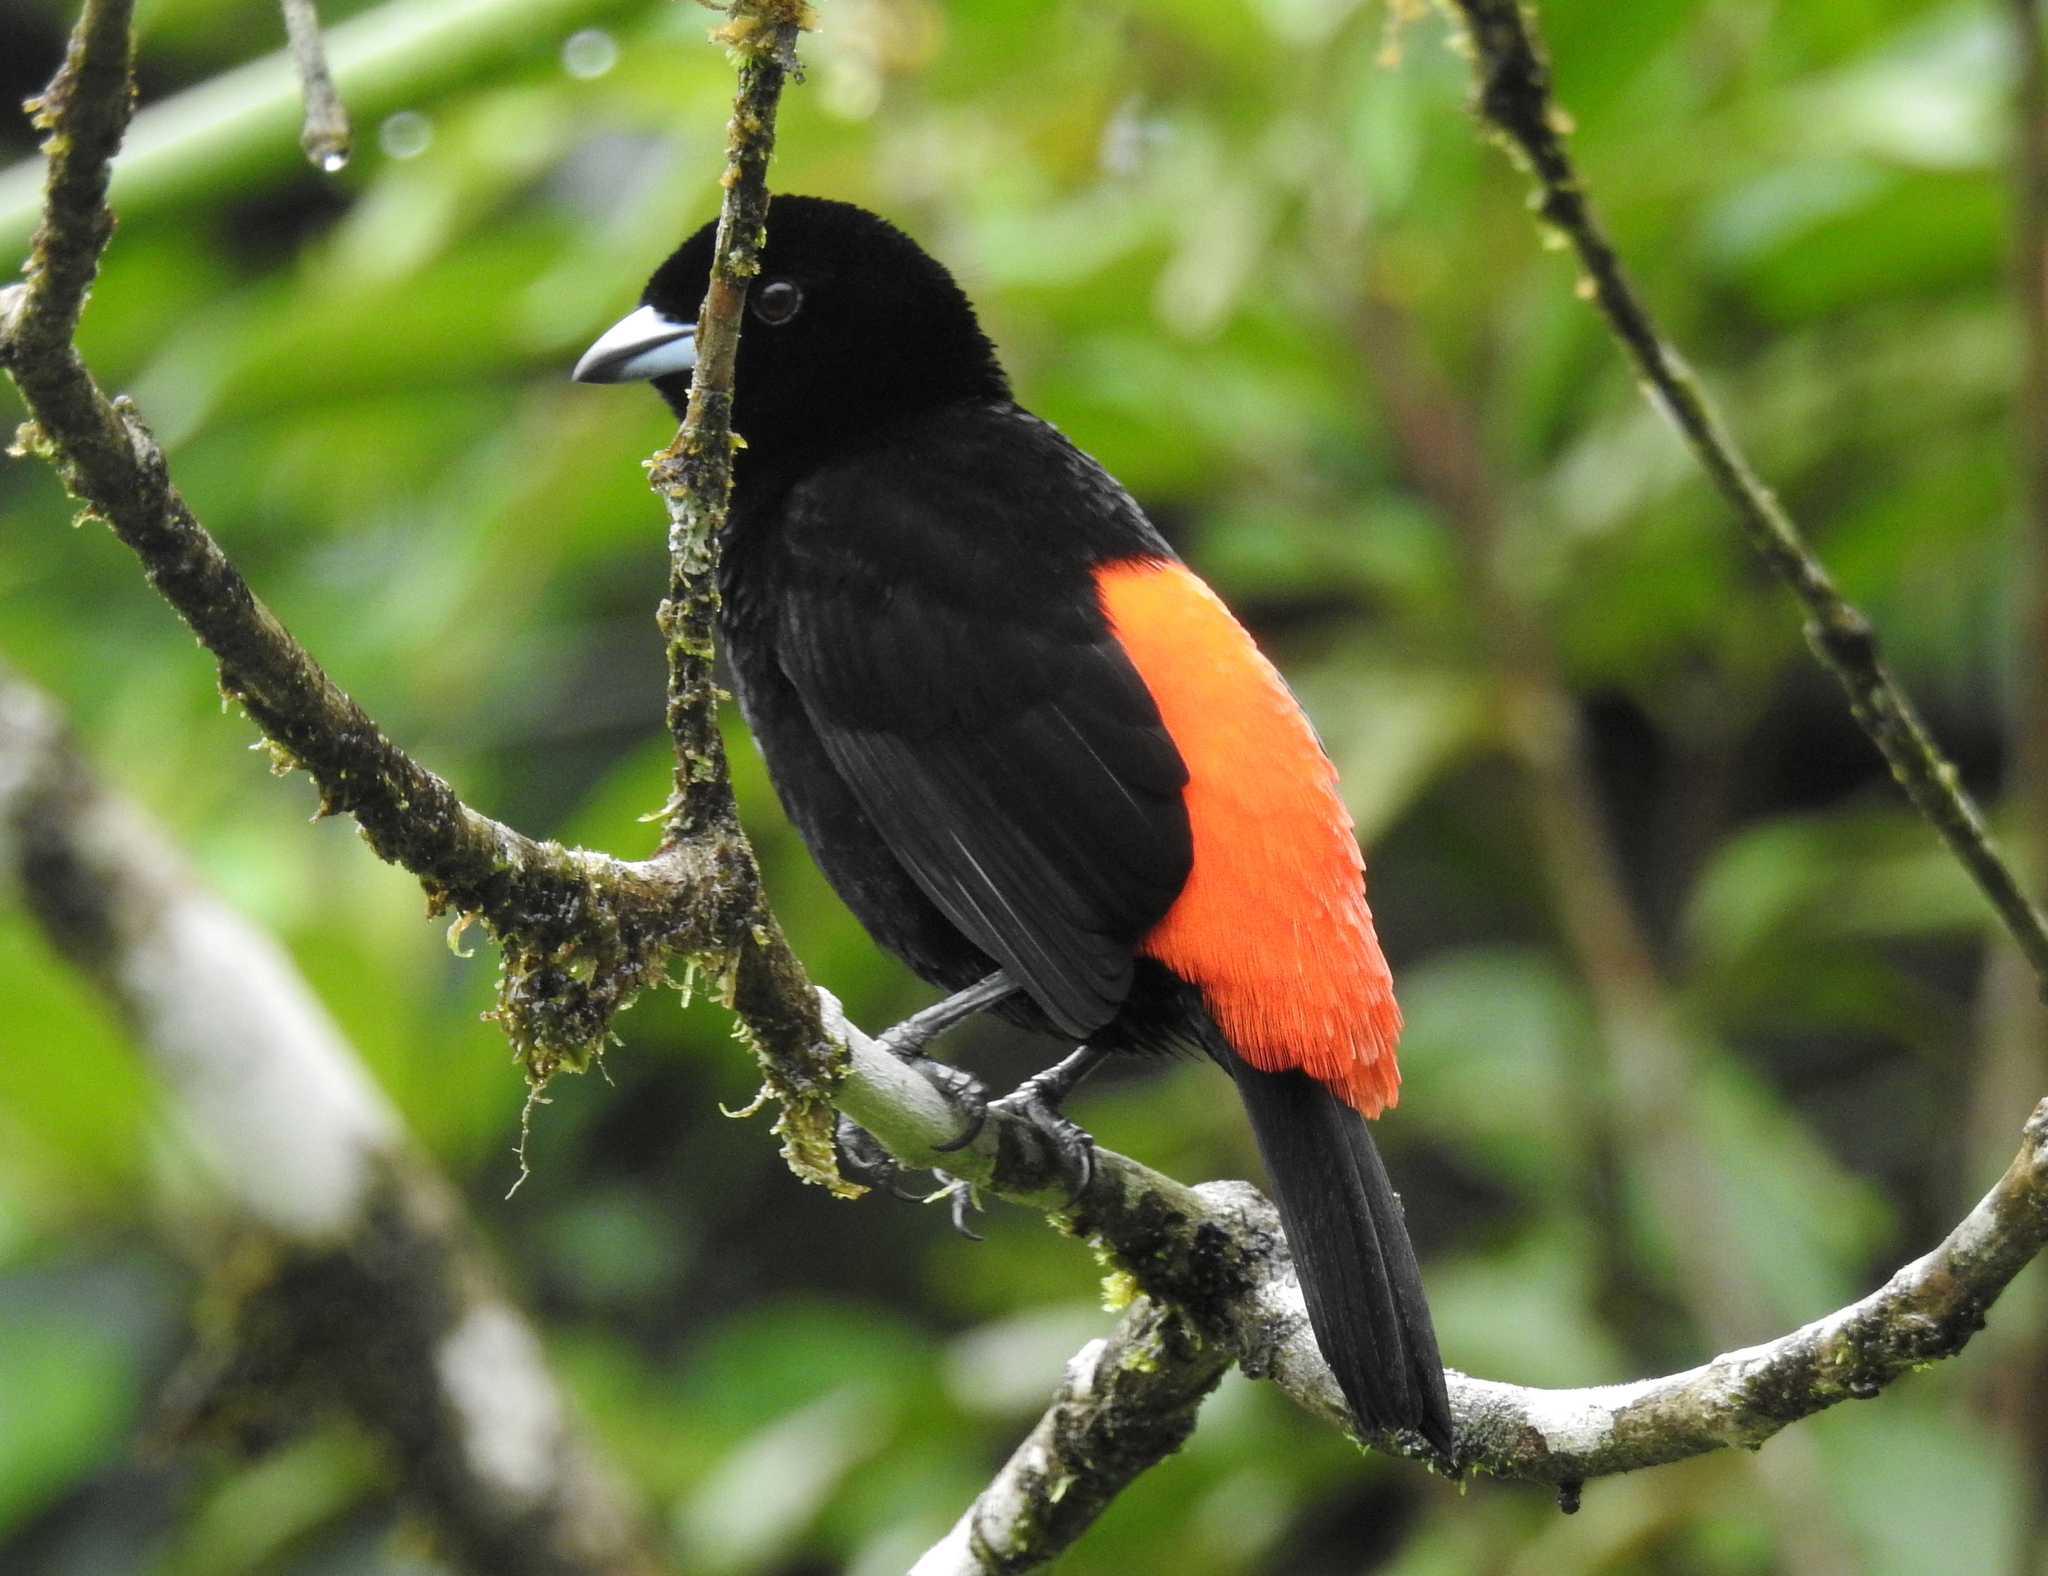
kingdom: Animalia
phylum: Chordata
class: Aves
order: Passeriformes
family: Thraupidae
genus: Ramphocelus
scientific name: Ramphocelus passerinii
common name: Passerini's tanager
